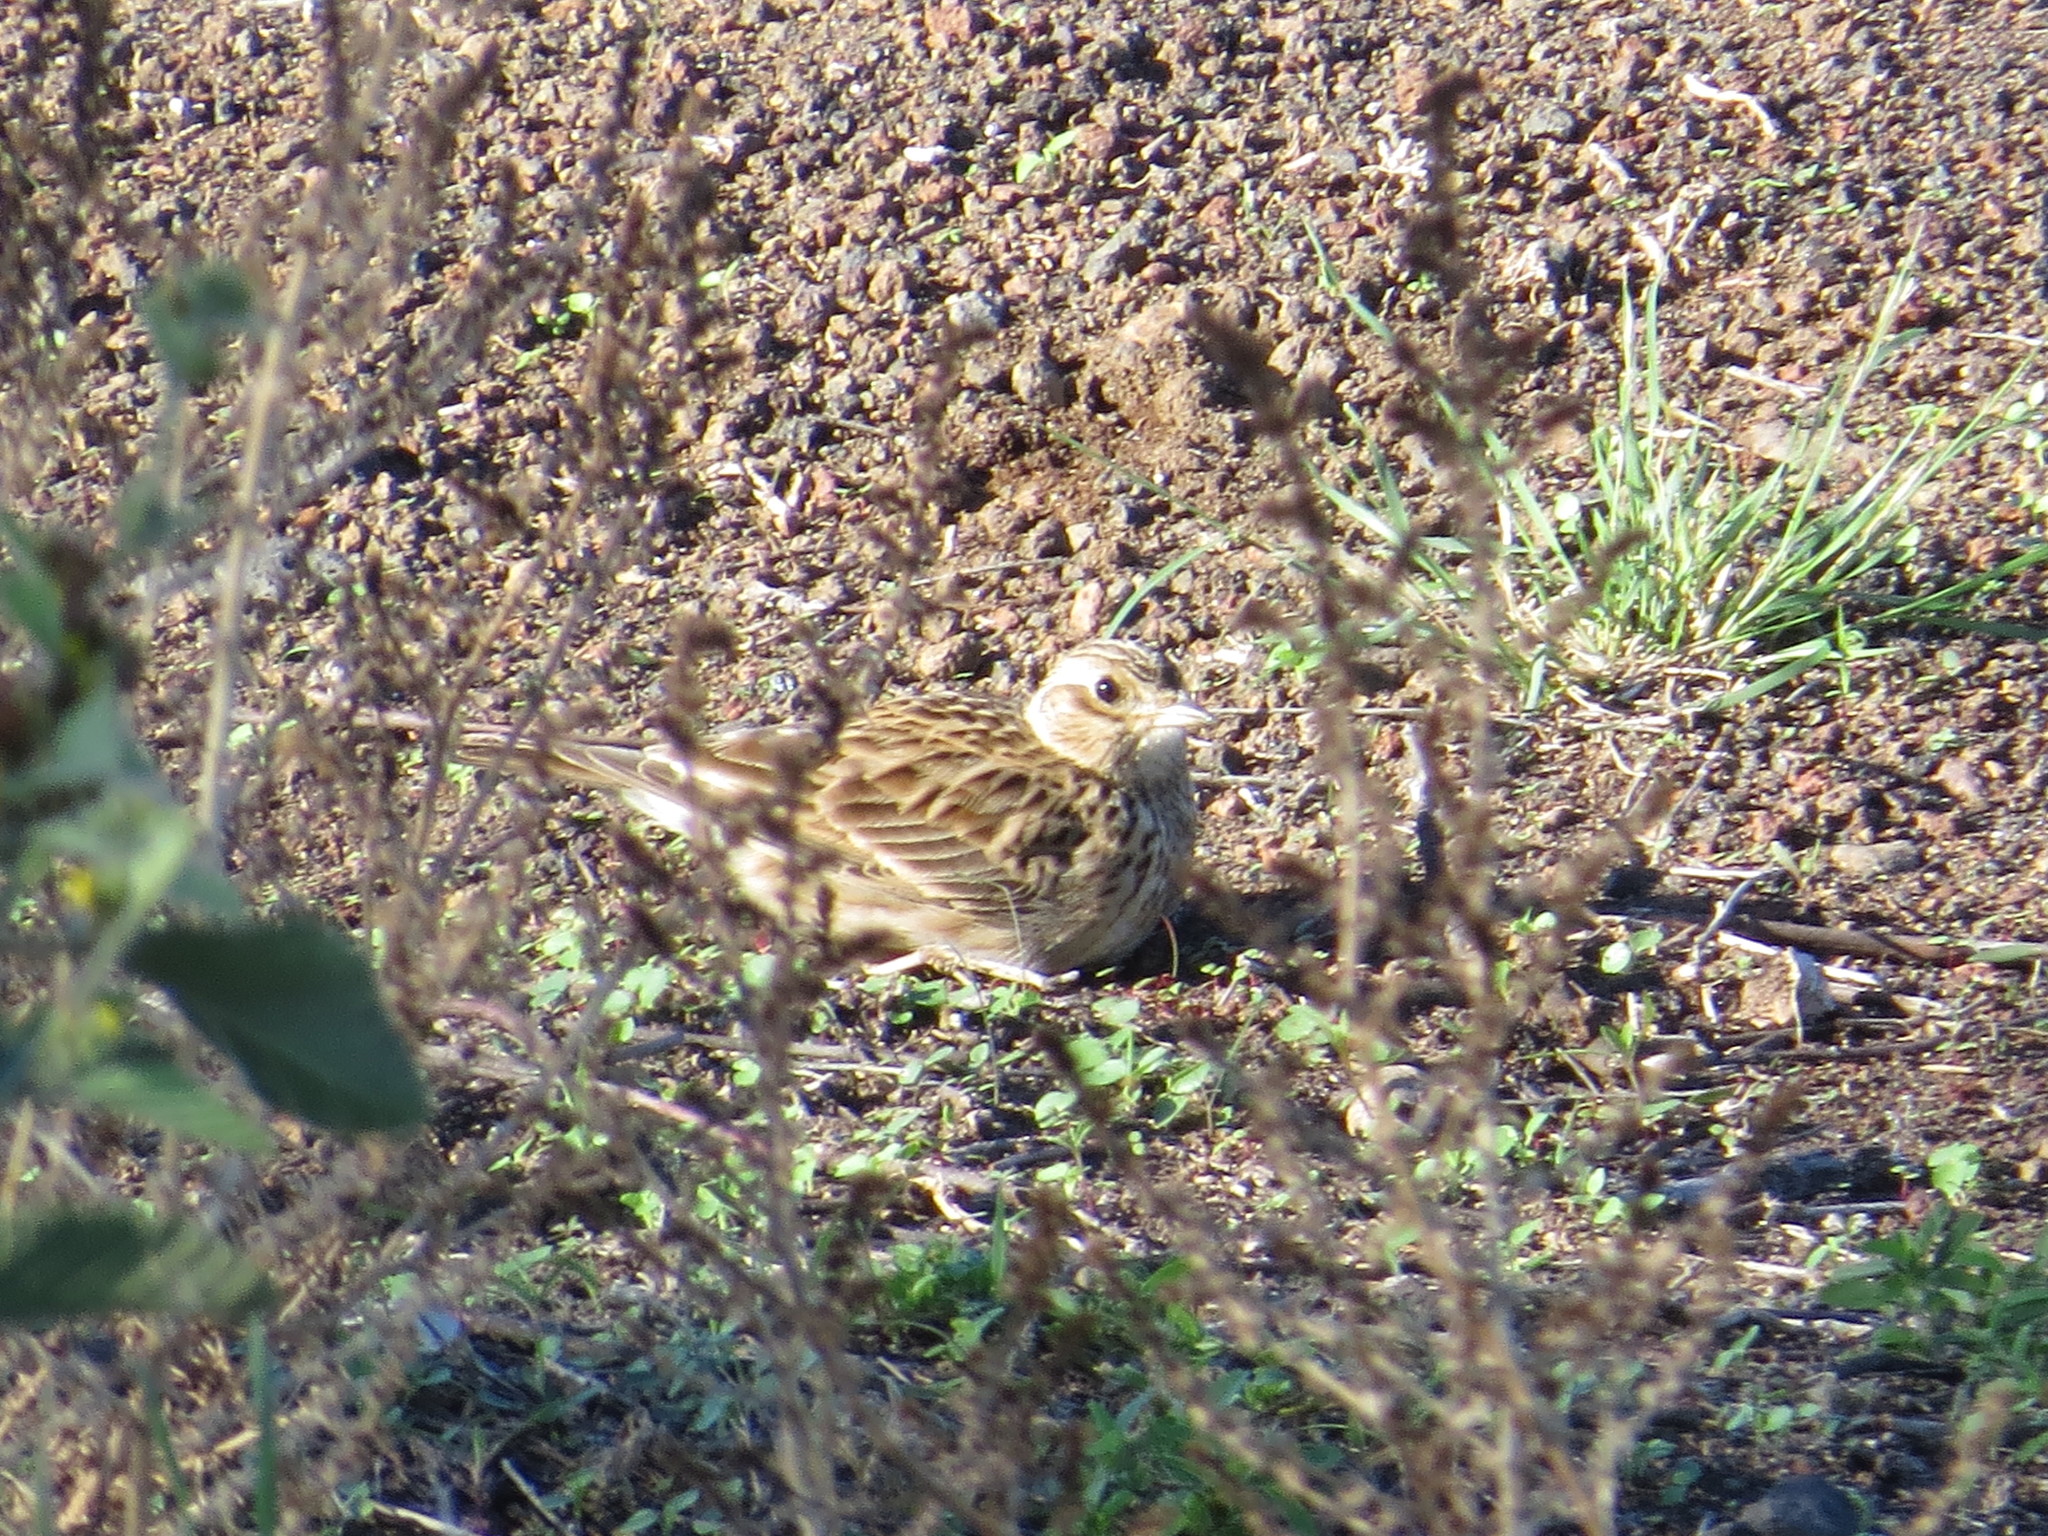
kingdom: Animalia
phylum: Chordata
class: Aves
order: Passeriformes
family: Alaudidae
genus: Alauda
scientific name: Alauda arvensis
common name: Eurasian skylark
